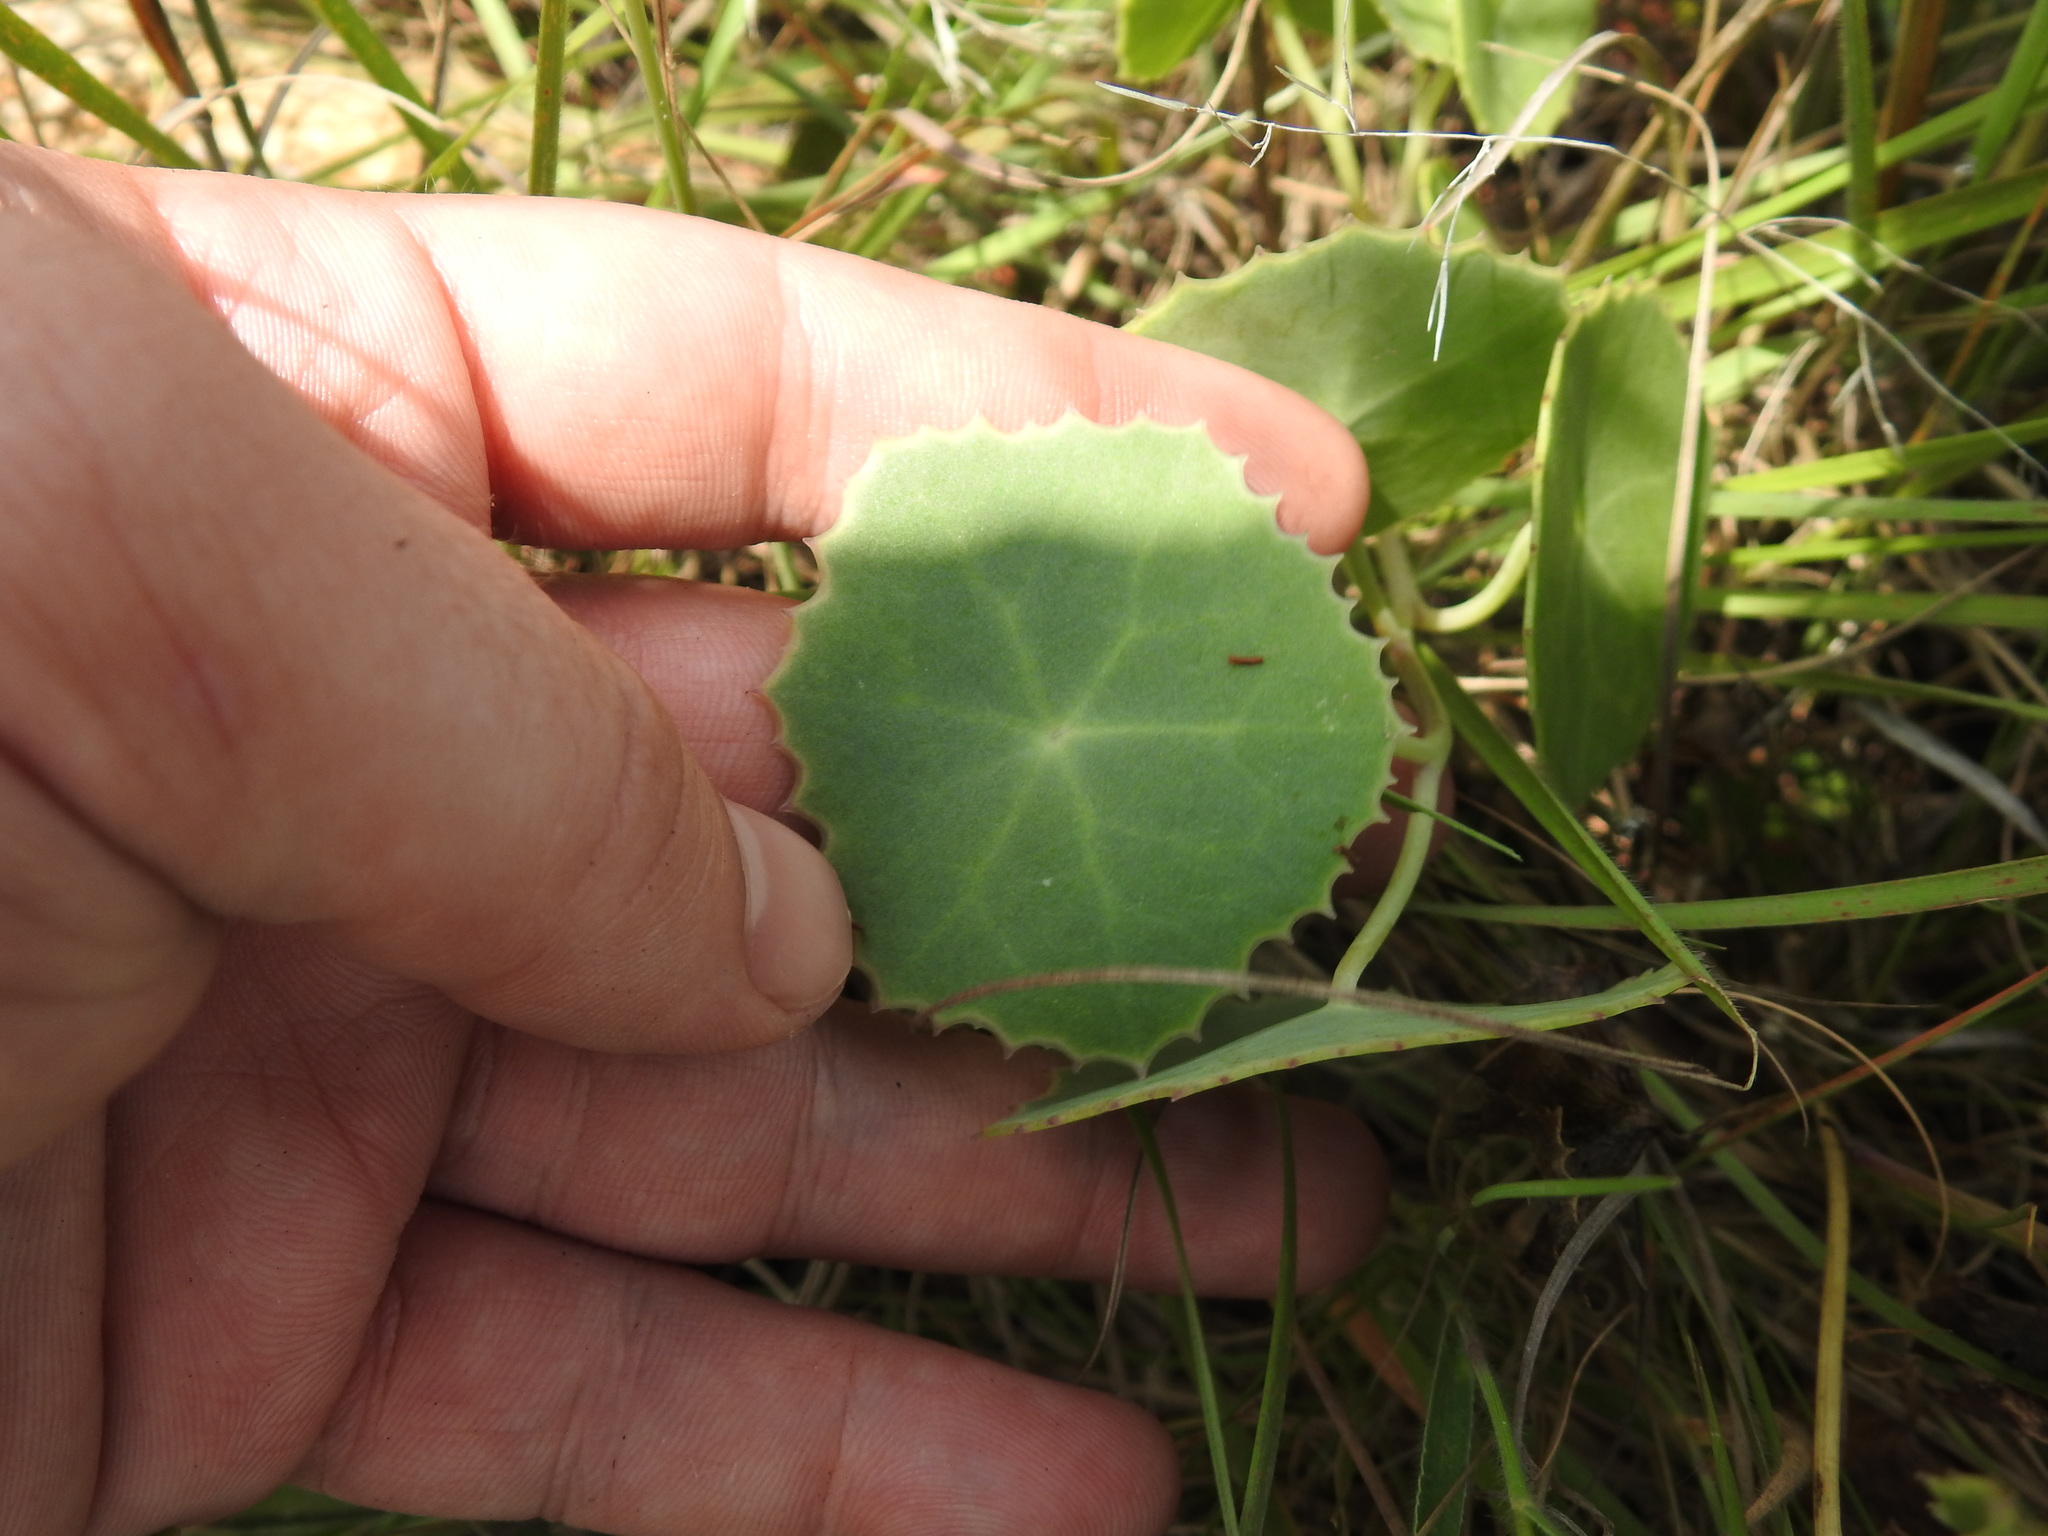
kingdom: Plantae
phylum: Tracheophyta
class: Magnoliopsida
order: Asterales
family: Asteraceae
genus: Senecio
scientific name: Senecio oxyriifolius
